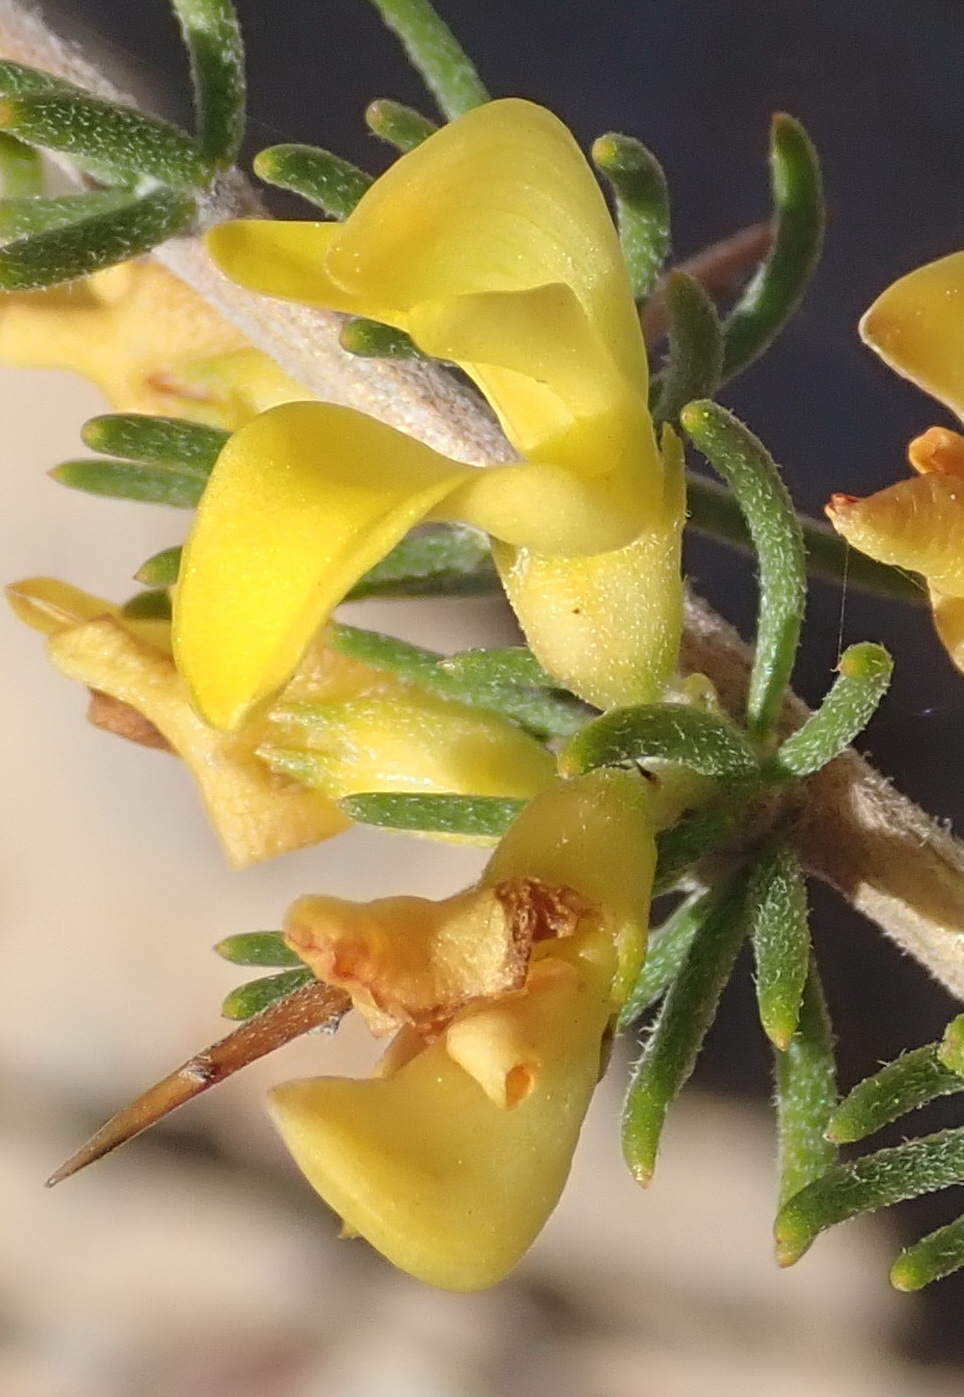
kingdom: Plantae
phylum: Tracheophyta
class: Magnoliopsida
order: Fabales
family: Fabaceae
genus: Aspalathus
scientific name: Aspalathus spinosa
